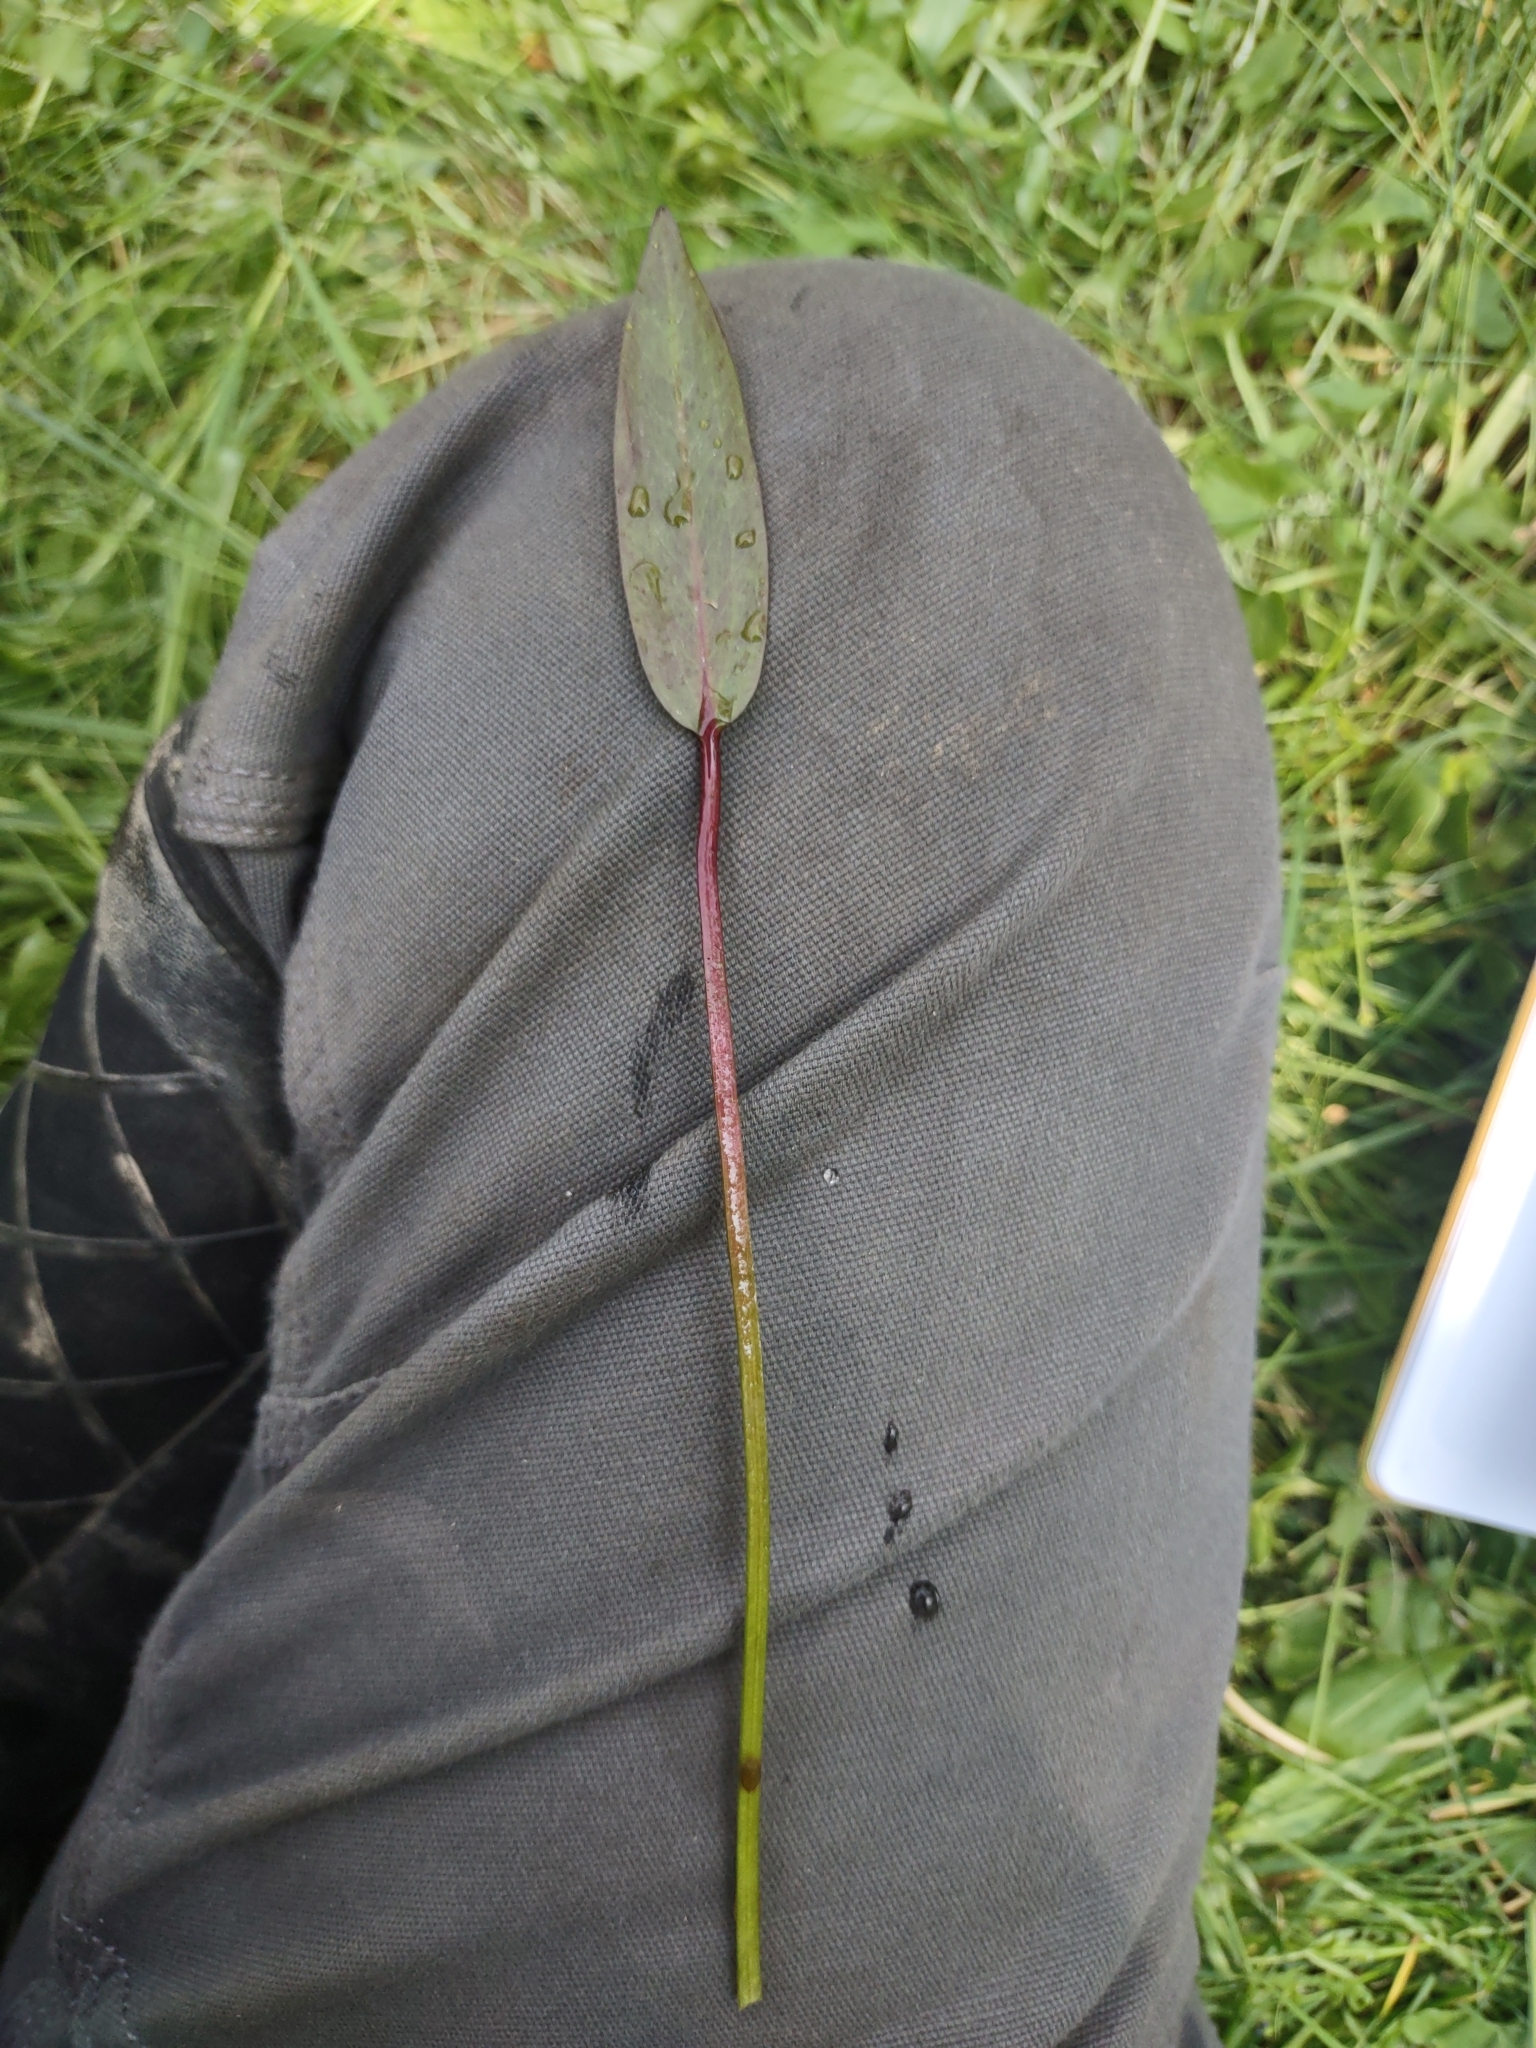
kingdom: Plantae
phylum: Tracheophyta
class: Liliopsida
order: Alismatales
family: Potamogetonaceae
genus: Potamogeton
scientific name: Potamogeton nodosus
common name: Loddon pondweed
